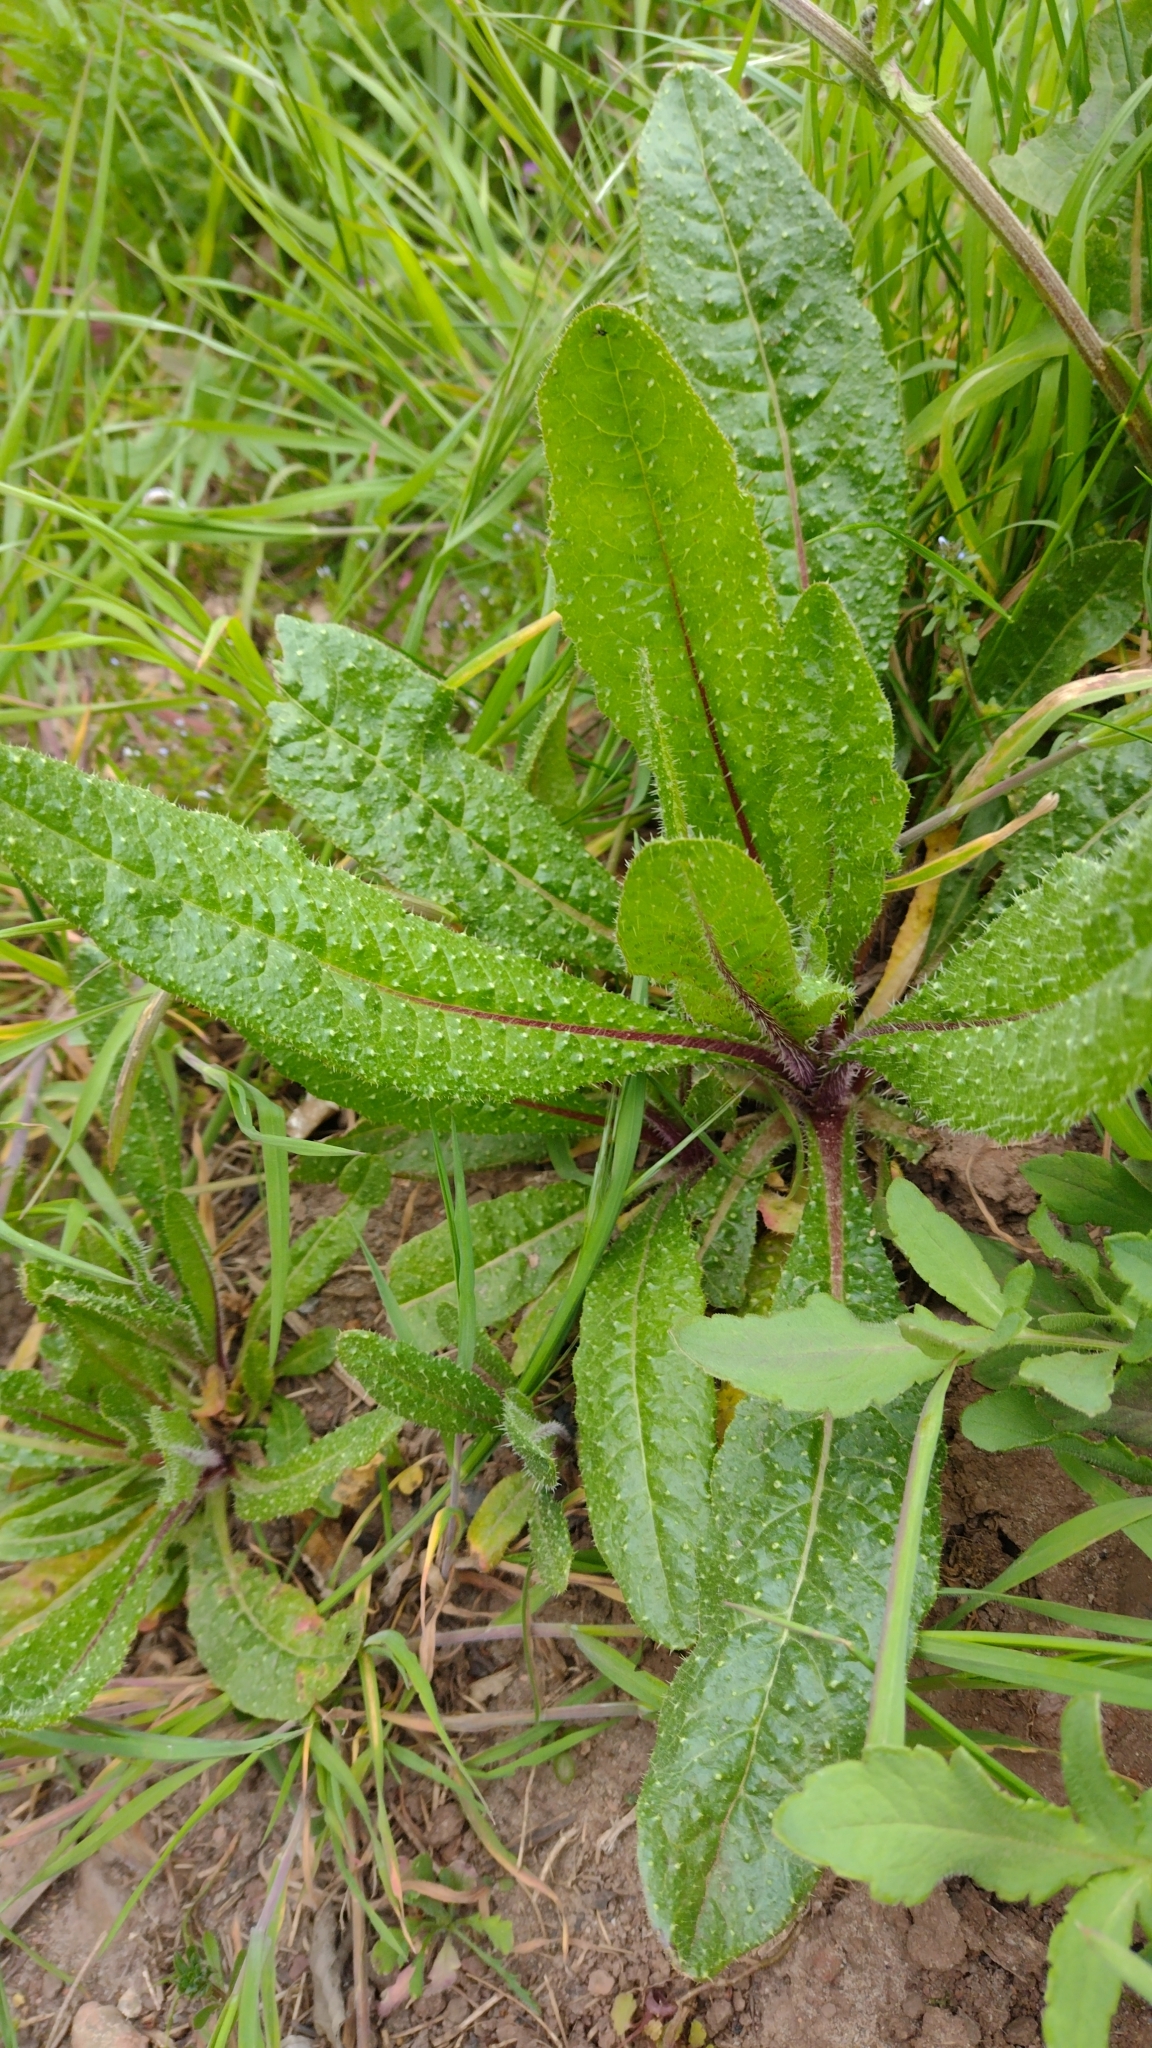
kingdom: Plantae
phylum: Tracheophyta
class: Magnoliopsida
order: Asterales
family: Asteraceae
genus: Helminthotheca
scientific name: Helminthotheca echioides
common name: Ox-tongue
